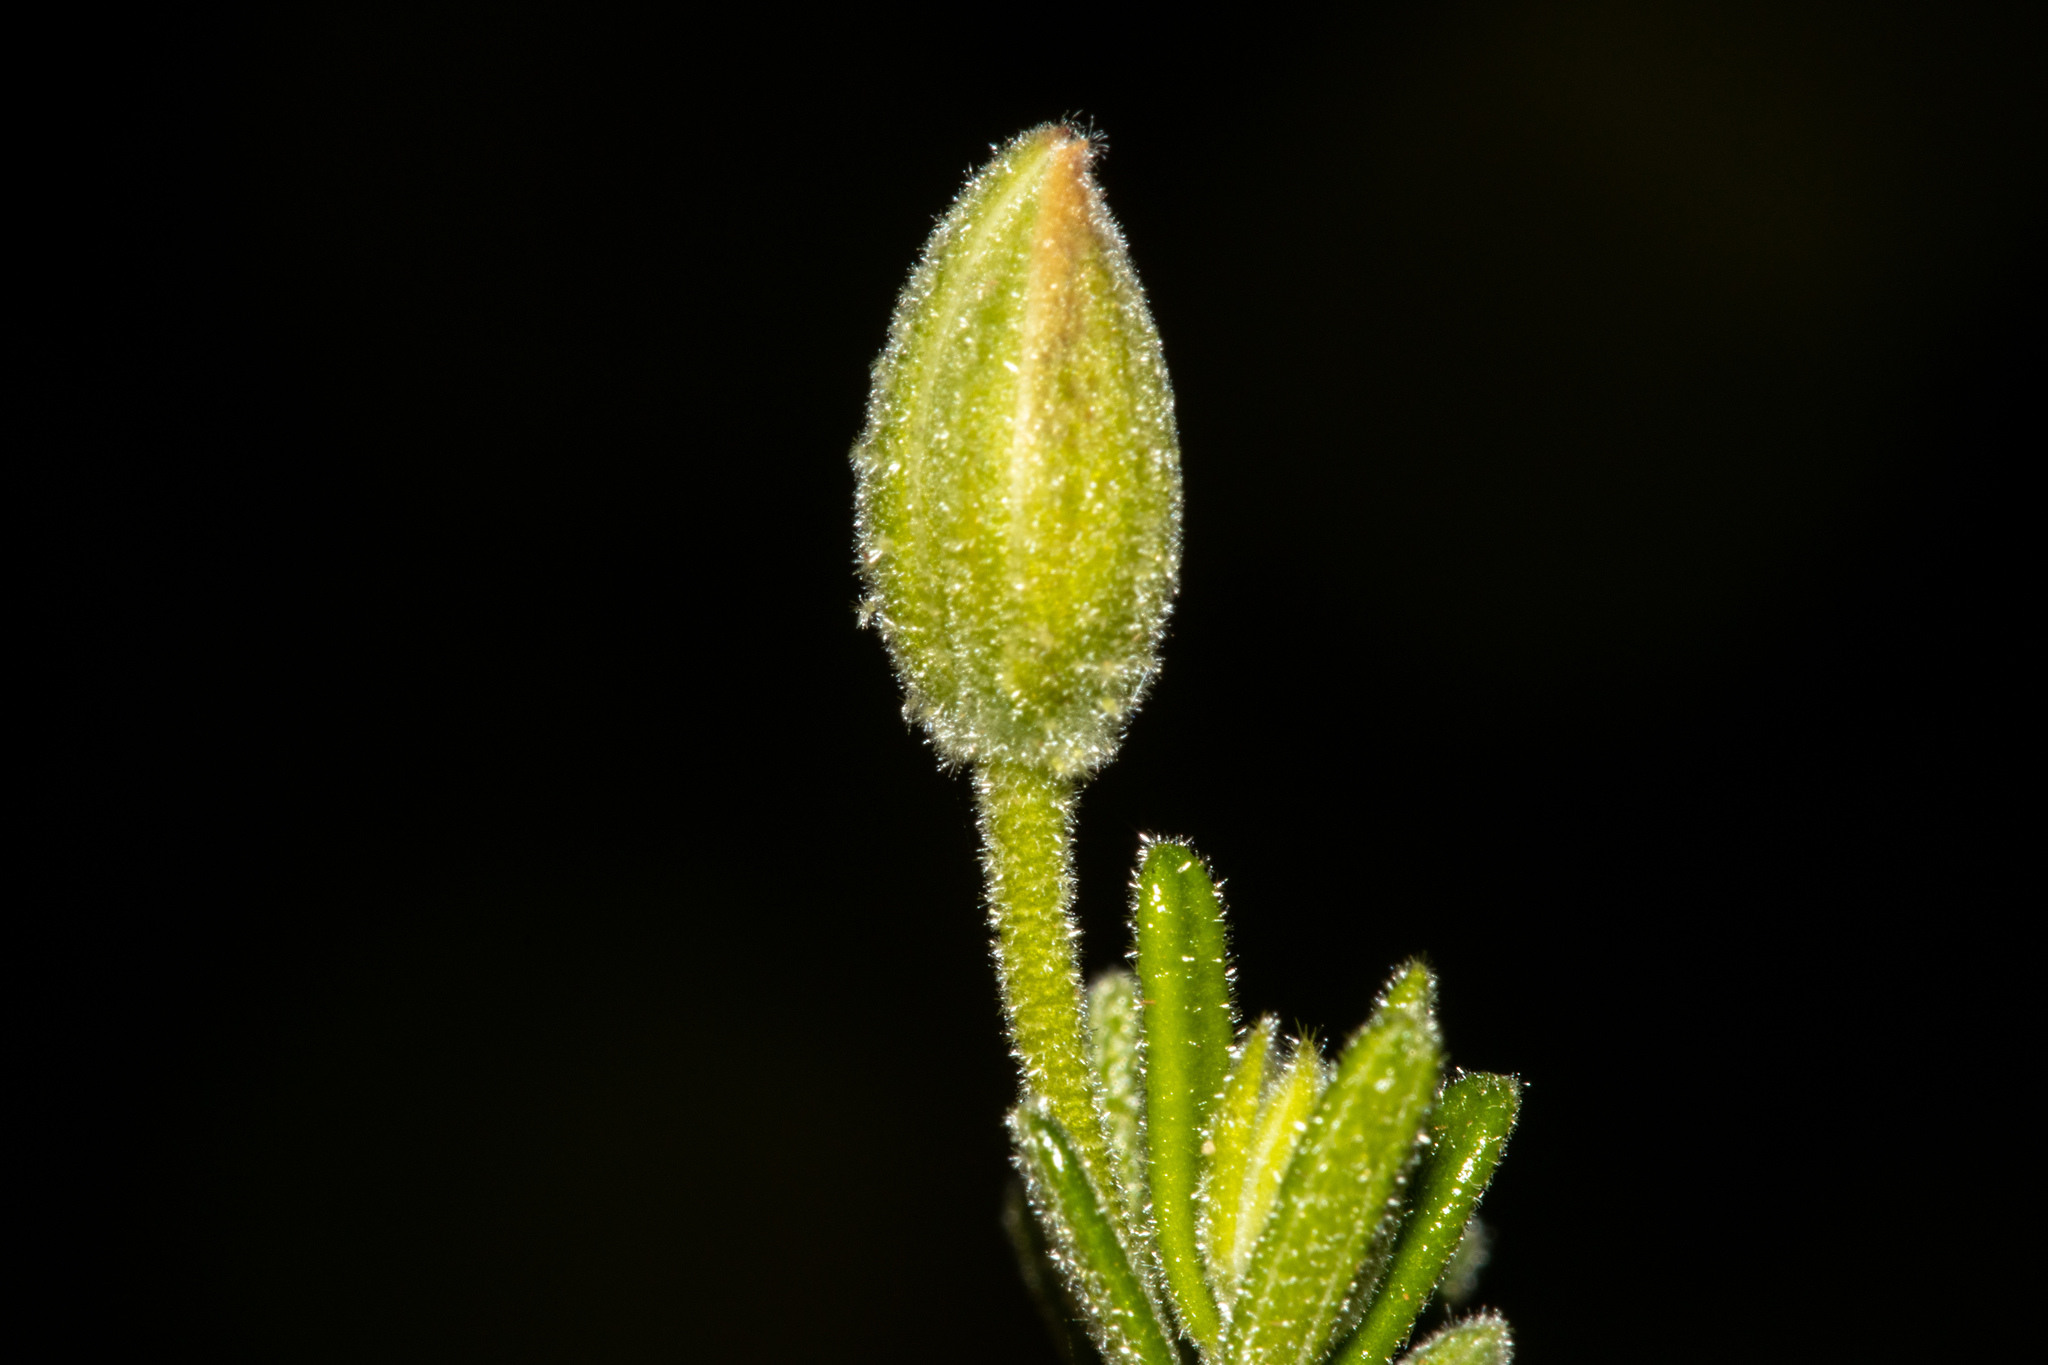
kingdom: Plantae
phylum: Tracheophyta
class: Magnoliopsida
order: Dilleniales
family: Dilleniaceae
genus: Hibbertia
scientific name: Hibbertia australis
